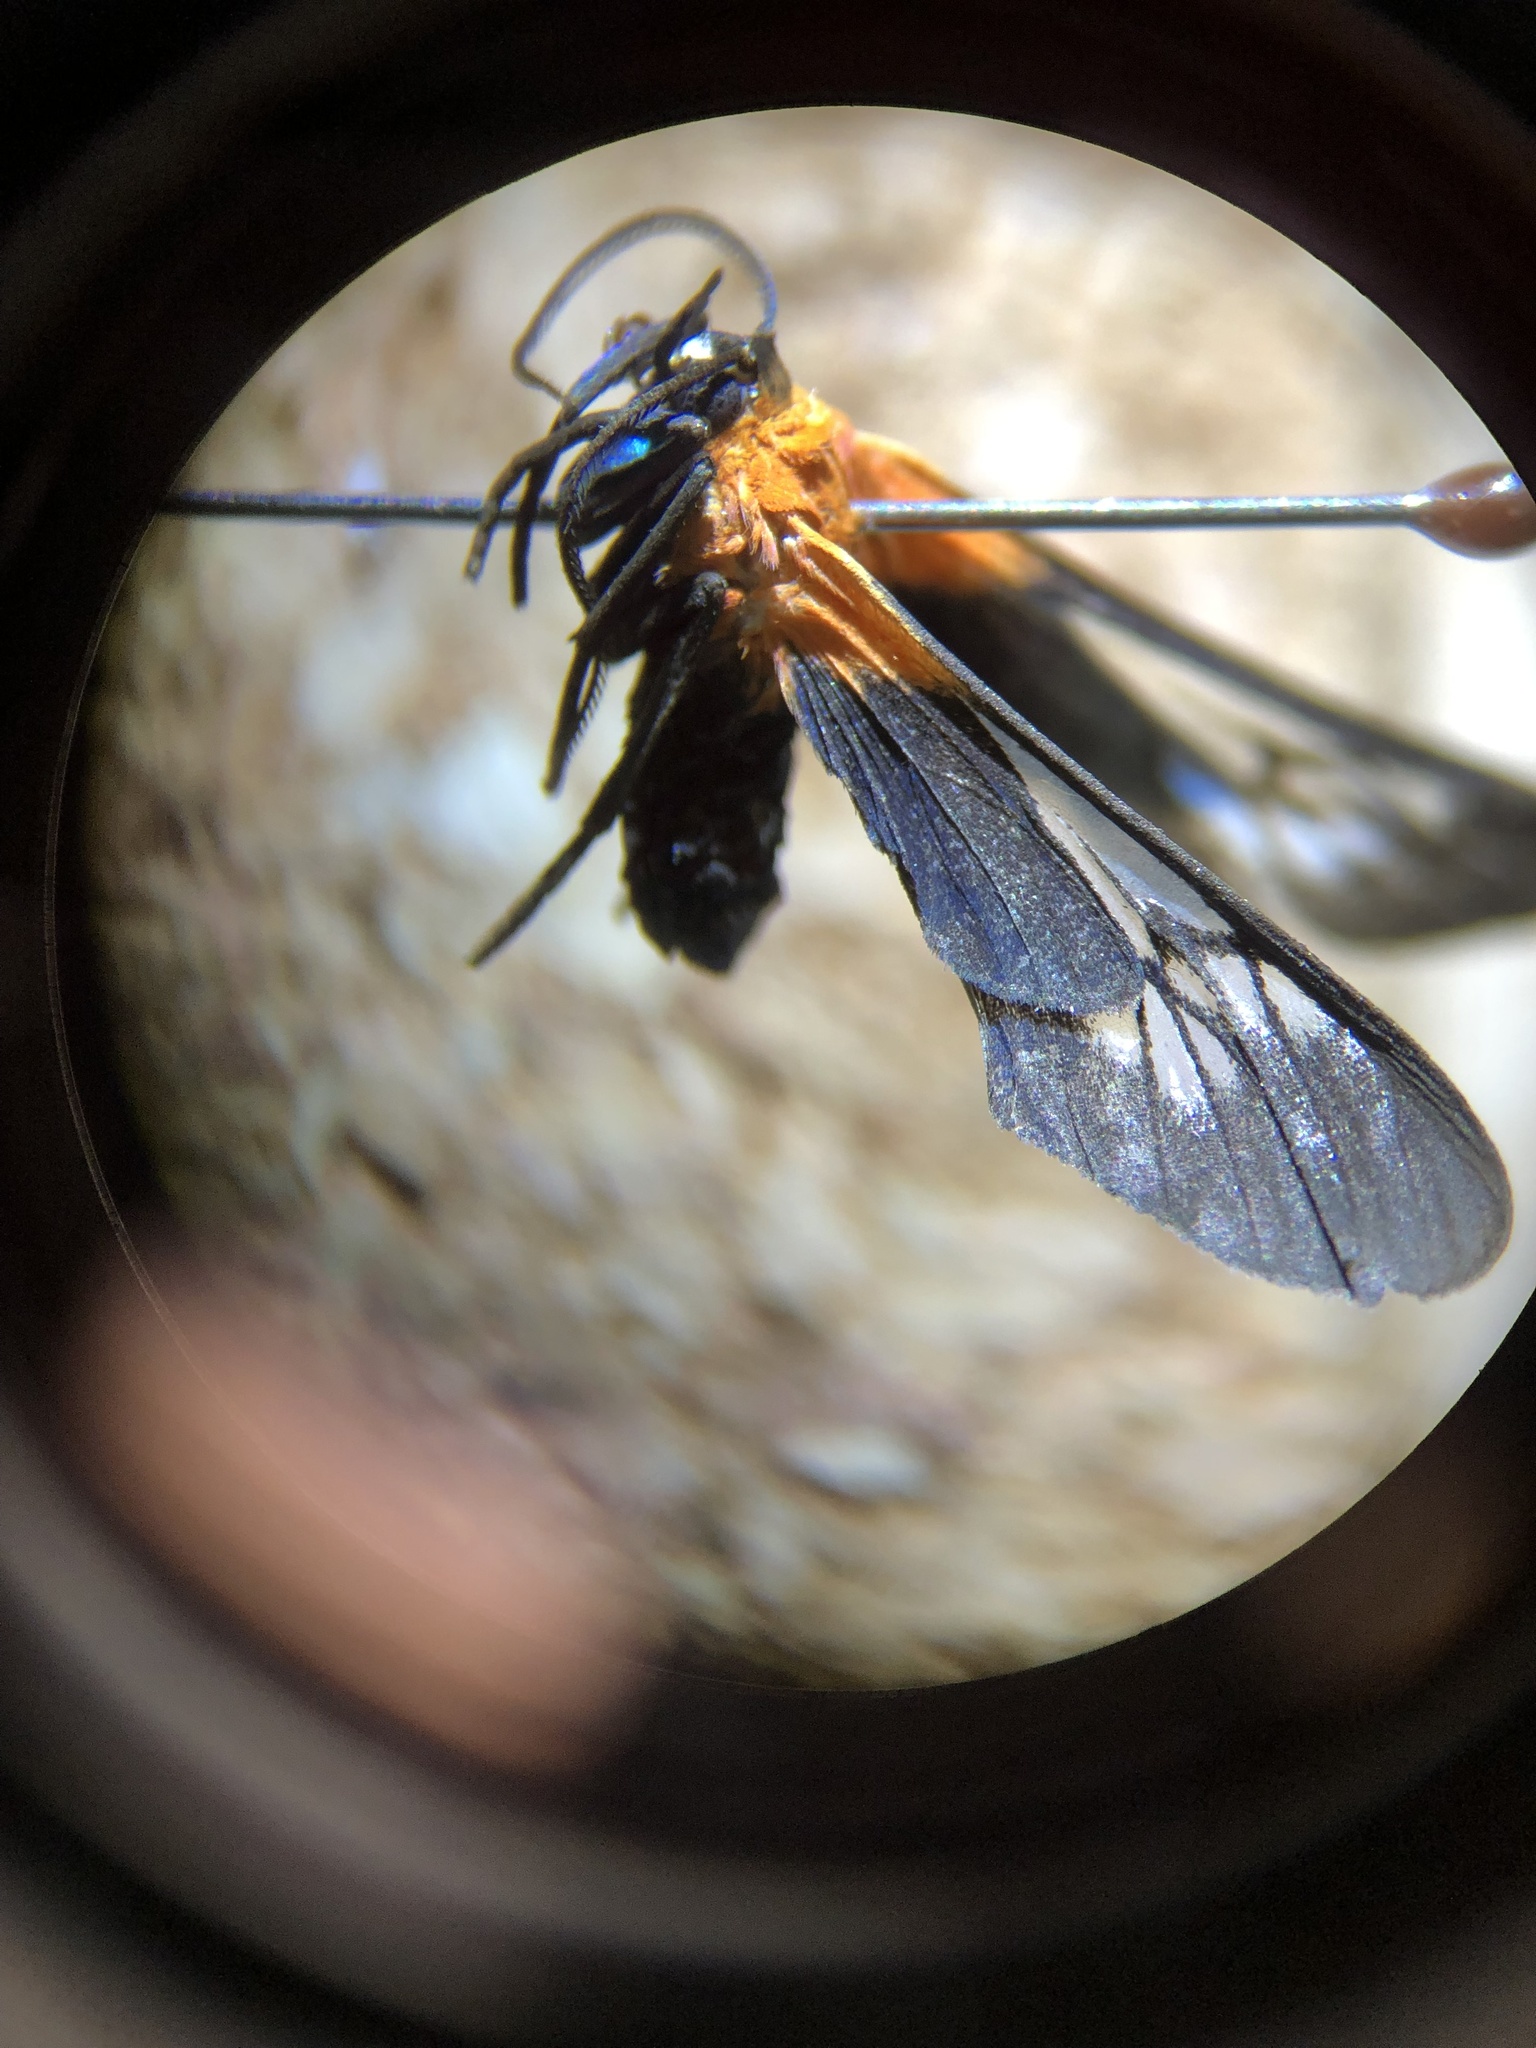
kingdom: Animalia
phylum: Arthropoda
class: Insecta
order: Lepidoptera
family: Erebidae
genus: Saurita
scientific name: Saurita sanguinea
